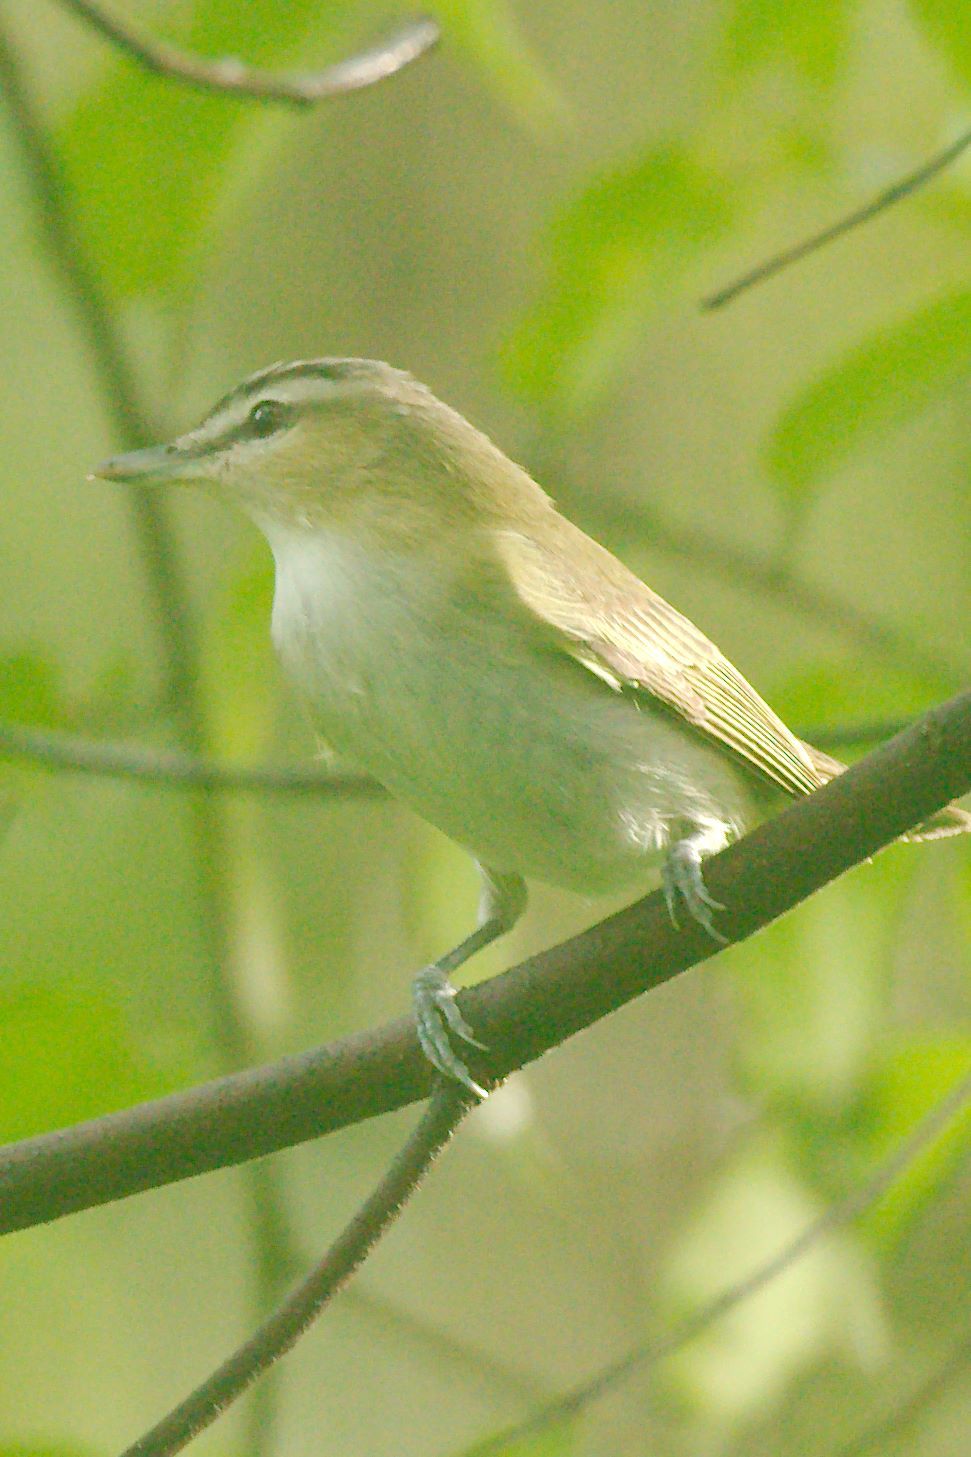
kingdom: Animalia
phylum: Chordata
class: Aves
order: Passeriformes
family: Vireonidae
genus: Vireo
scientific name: Vireo olivaceus
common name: Red-eyed vireo
